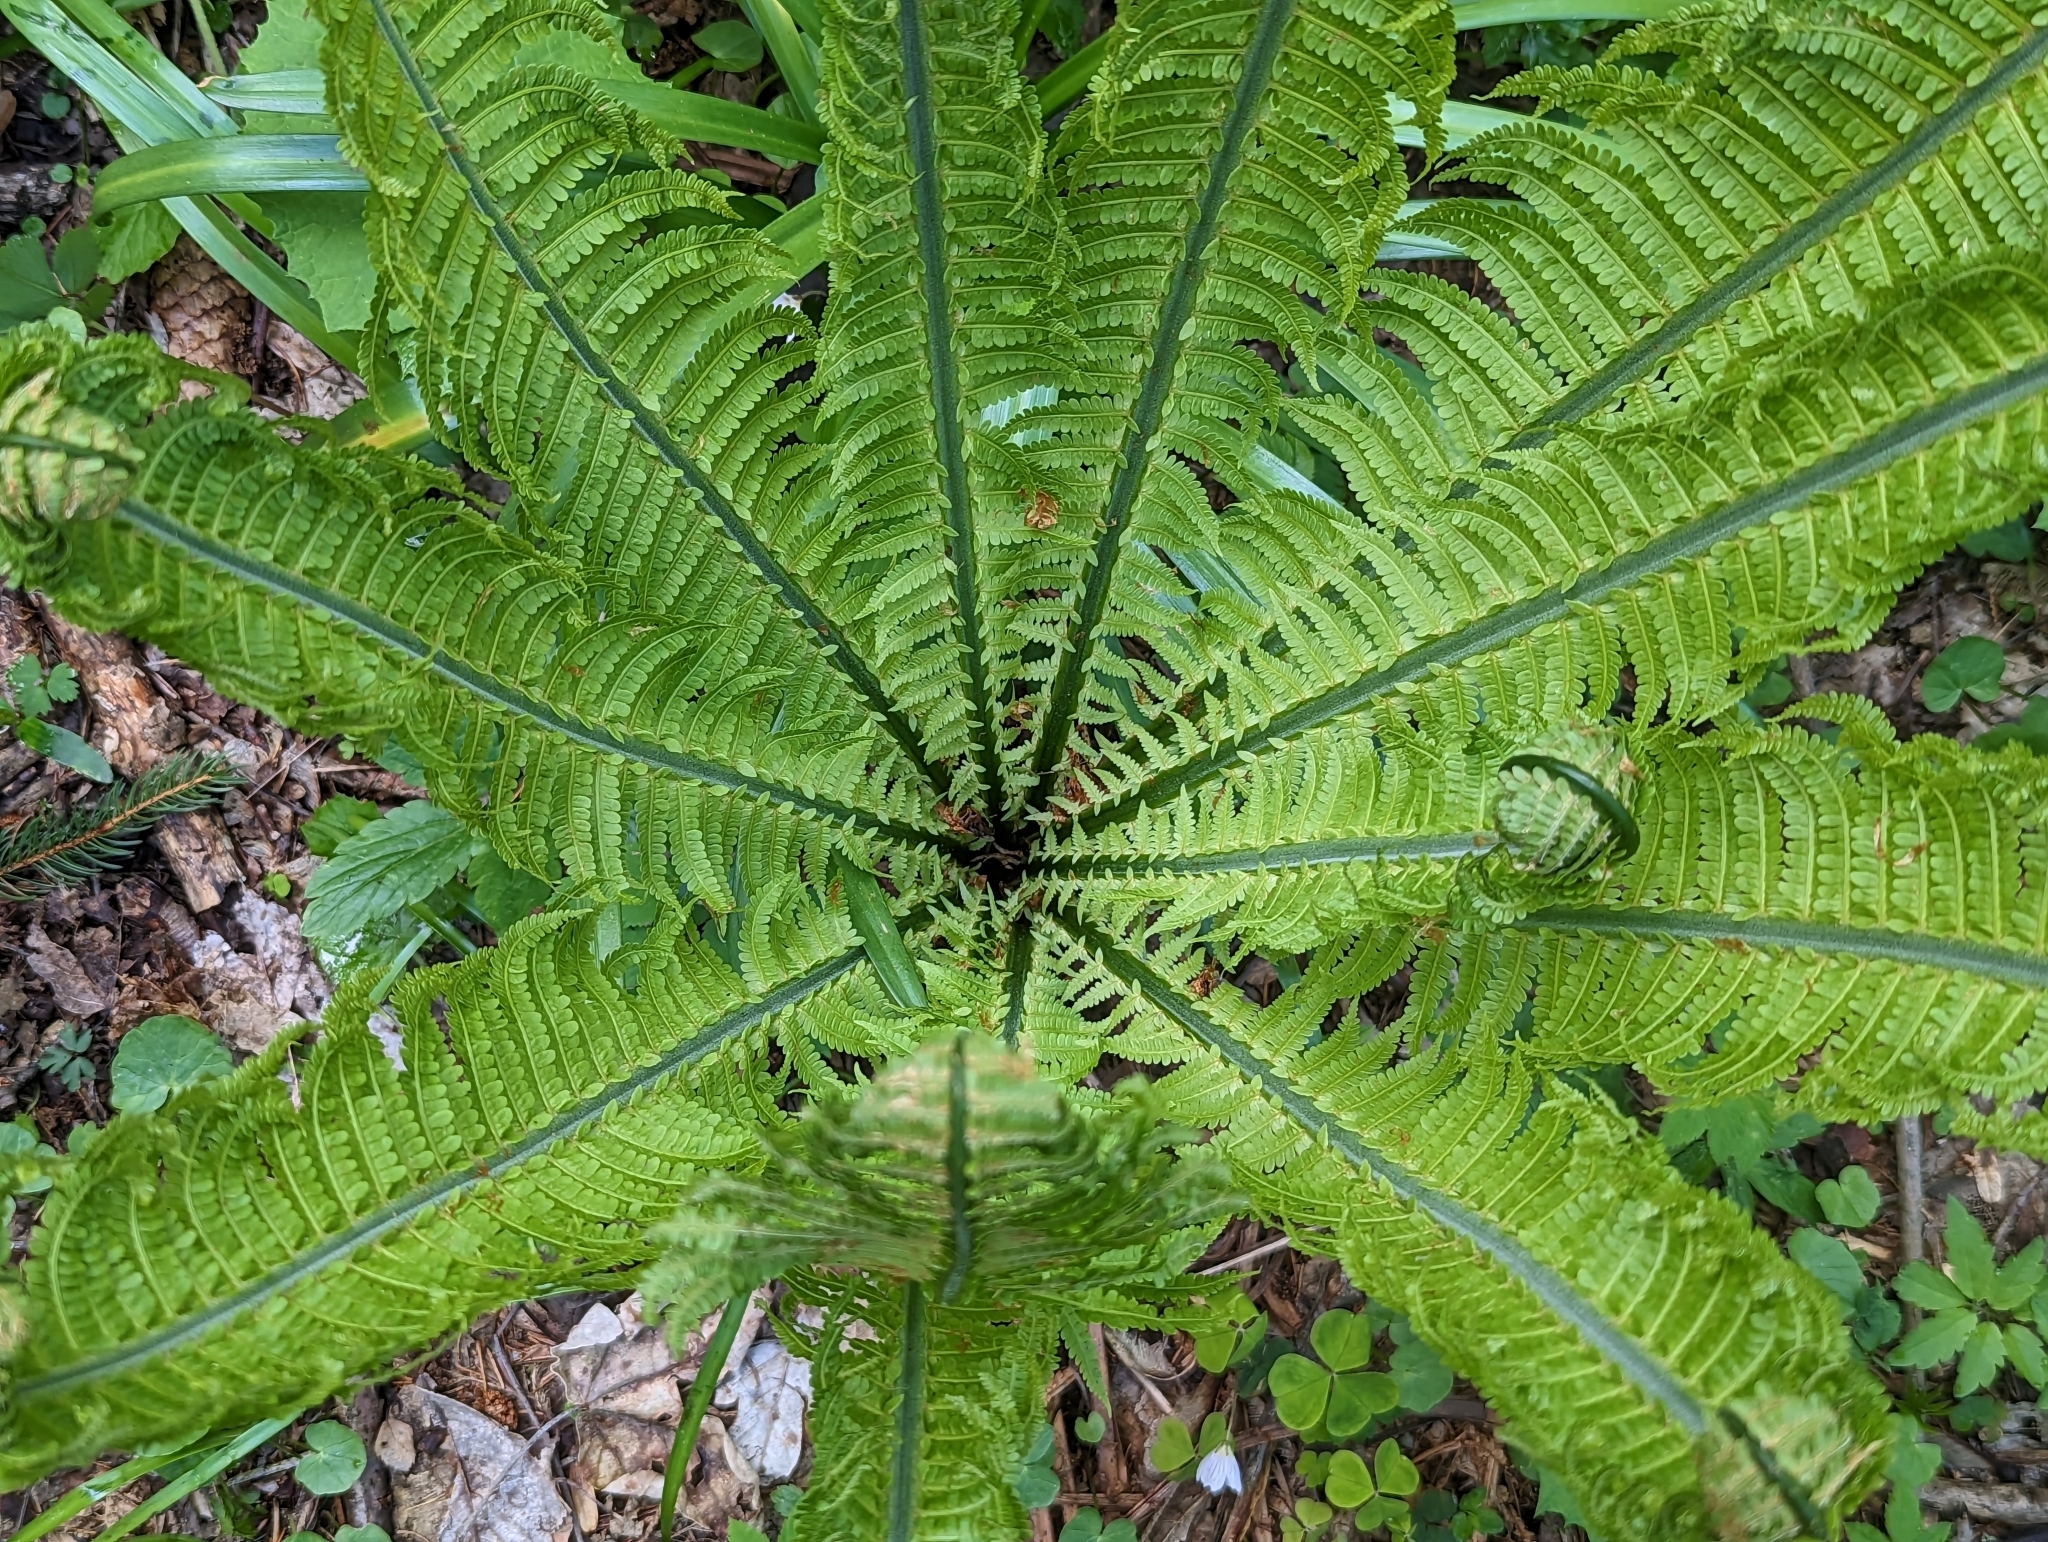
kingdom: Plantae
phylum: Tracheophyta
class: Polypodiopsida
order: Polypodiales
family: Onocleaceae
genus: Matteuccia
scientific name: Matteuccia struthiopteris
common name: Ostrich fern
